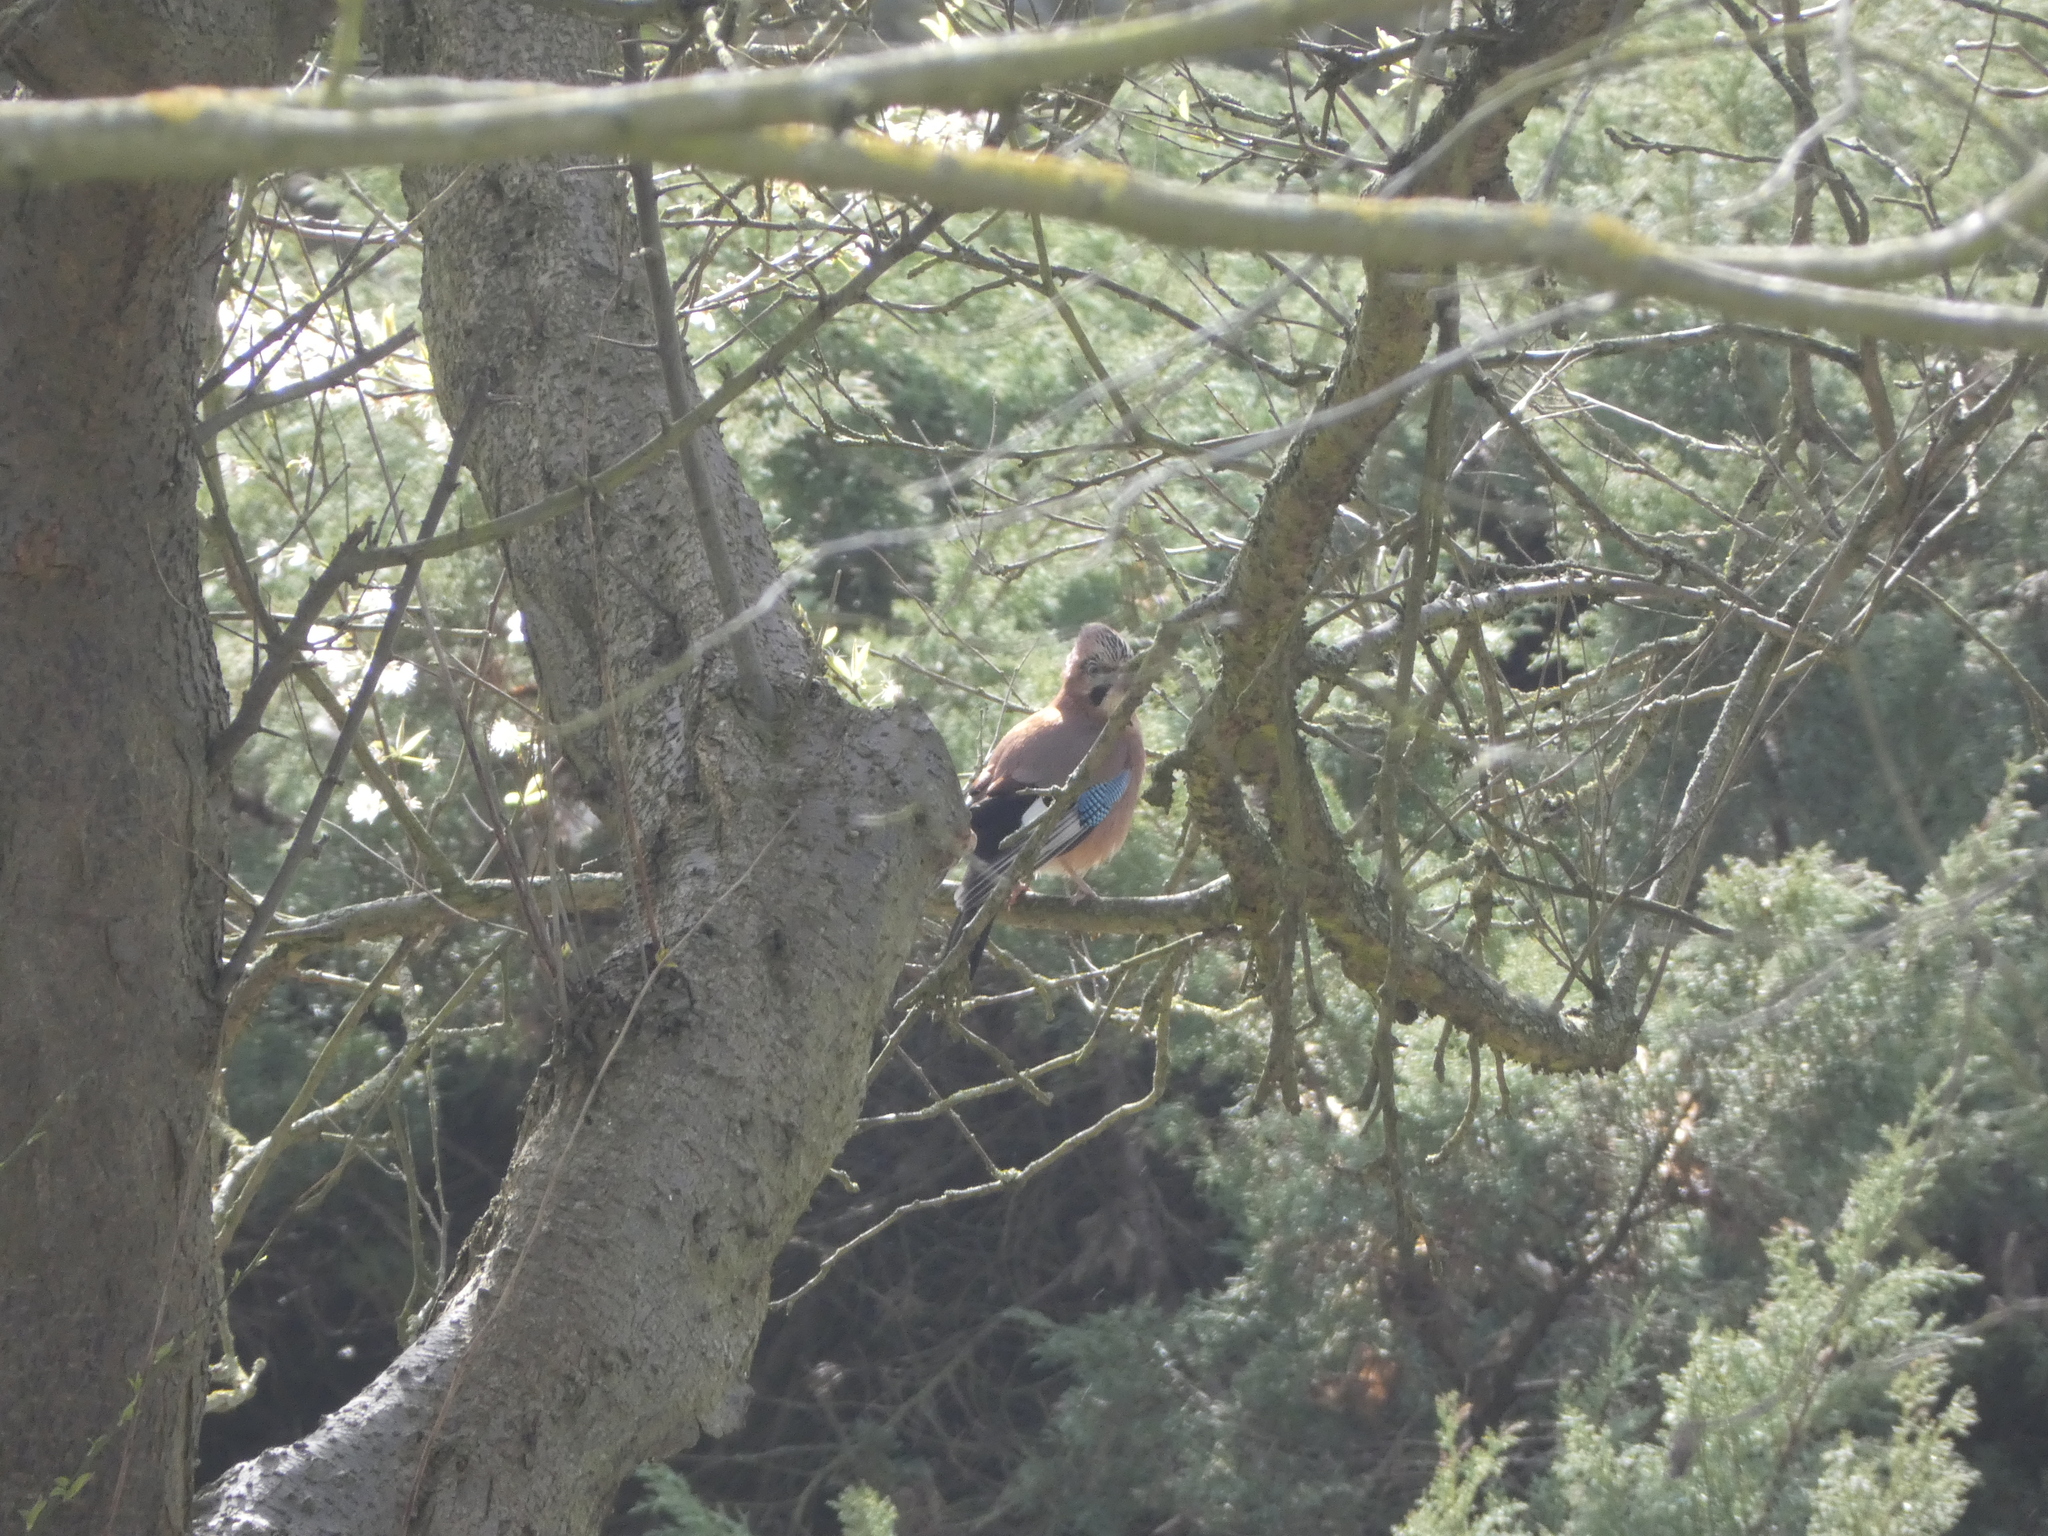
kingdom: Animalia
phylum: Chordata
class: Aves
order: Passeriformes
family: Corvidae
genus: Garrulus
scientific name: Garrulus glandarius
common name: Eurasian jay
